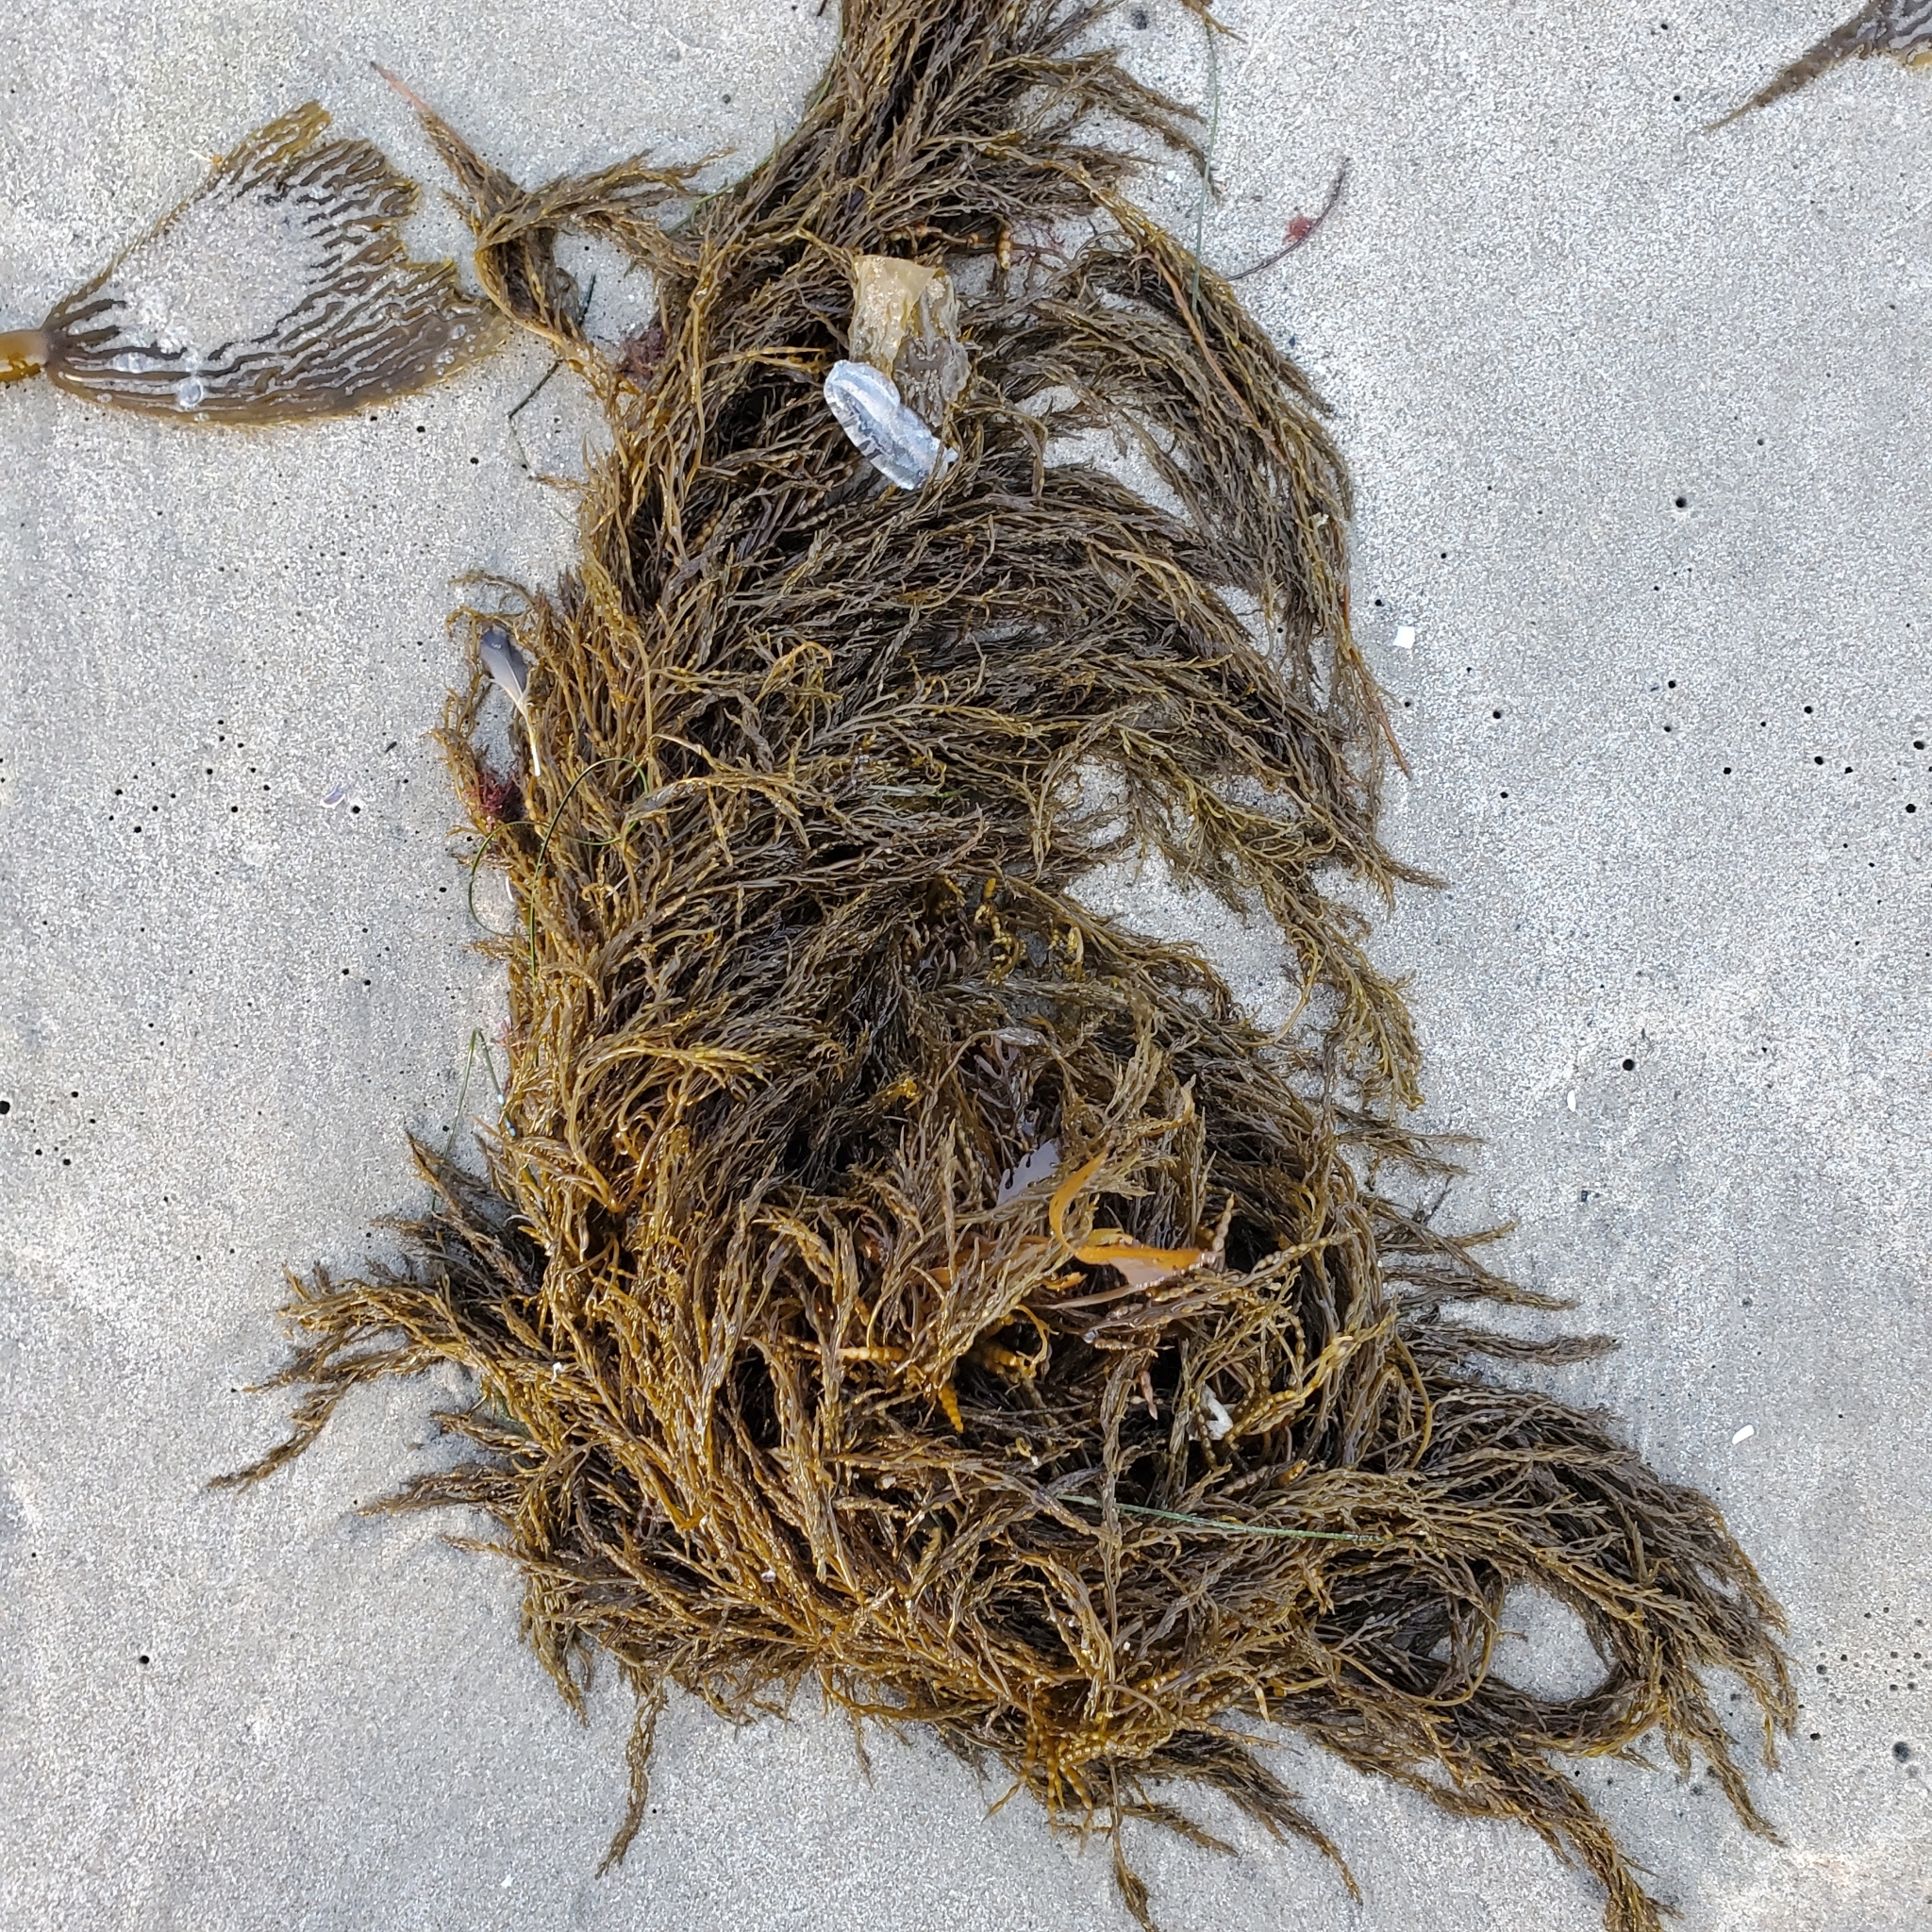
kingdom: Chromista
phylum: Ochrophyta
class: Phaeophyceae
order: Fucales
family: Sargassaceae
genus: Stephanocystis
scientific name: Stephanocystis
